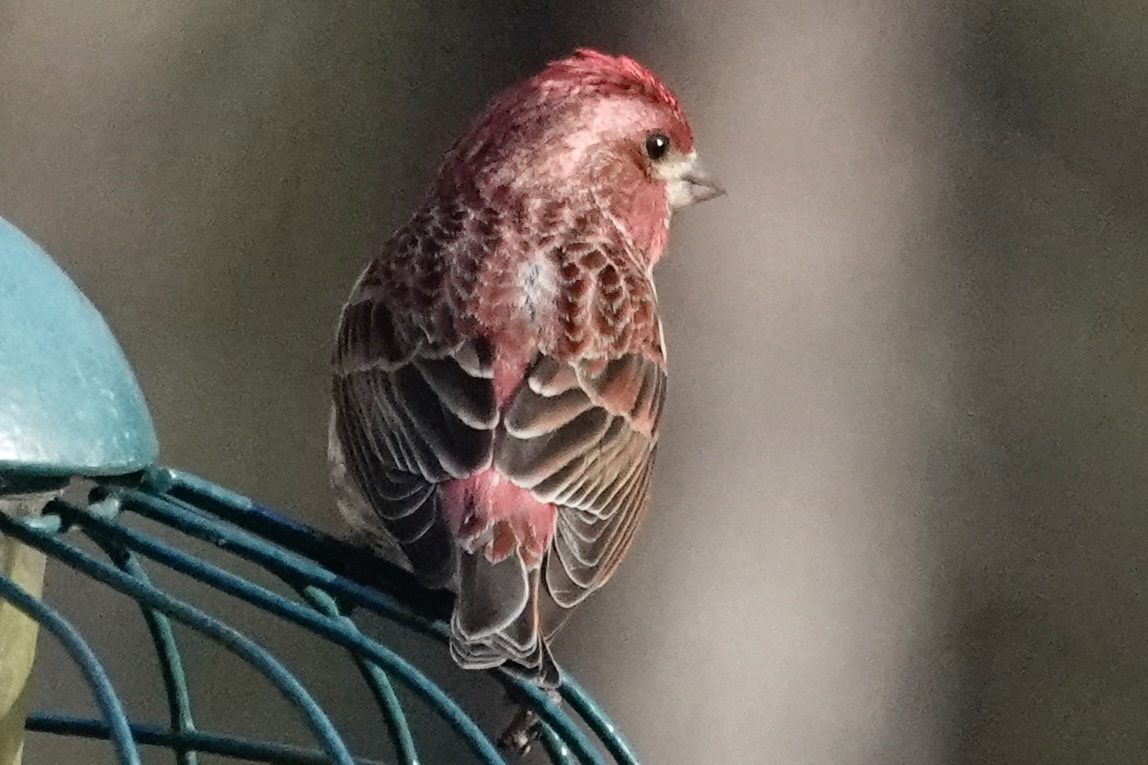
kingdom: Animalia
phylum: Chordata
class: Aves
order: Passeriformes
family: Fringillidae
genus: Haemorhous
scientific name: Haemorhous purpureus
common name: Purple finch
